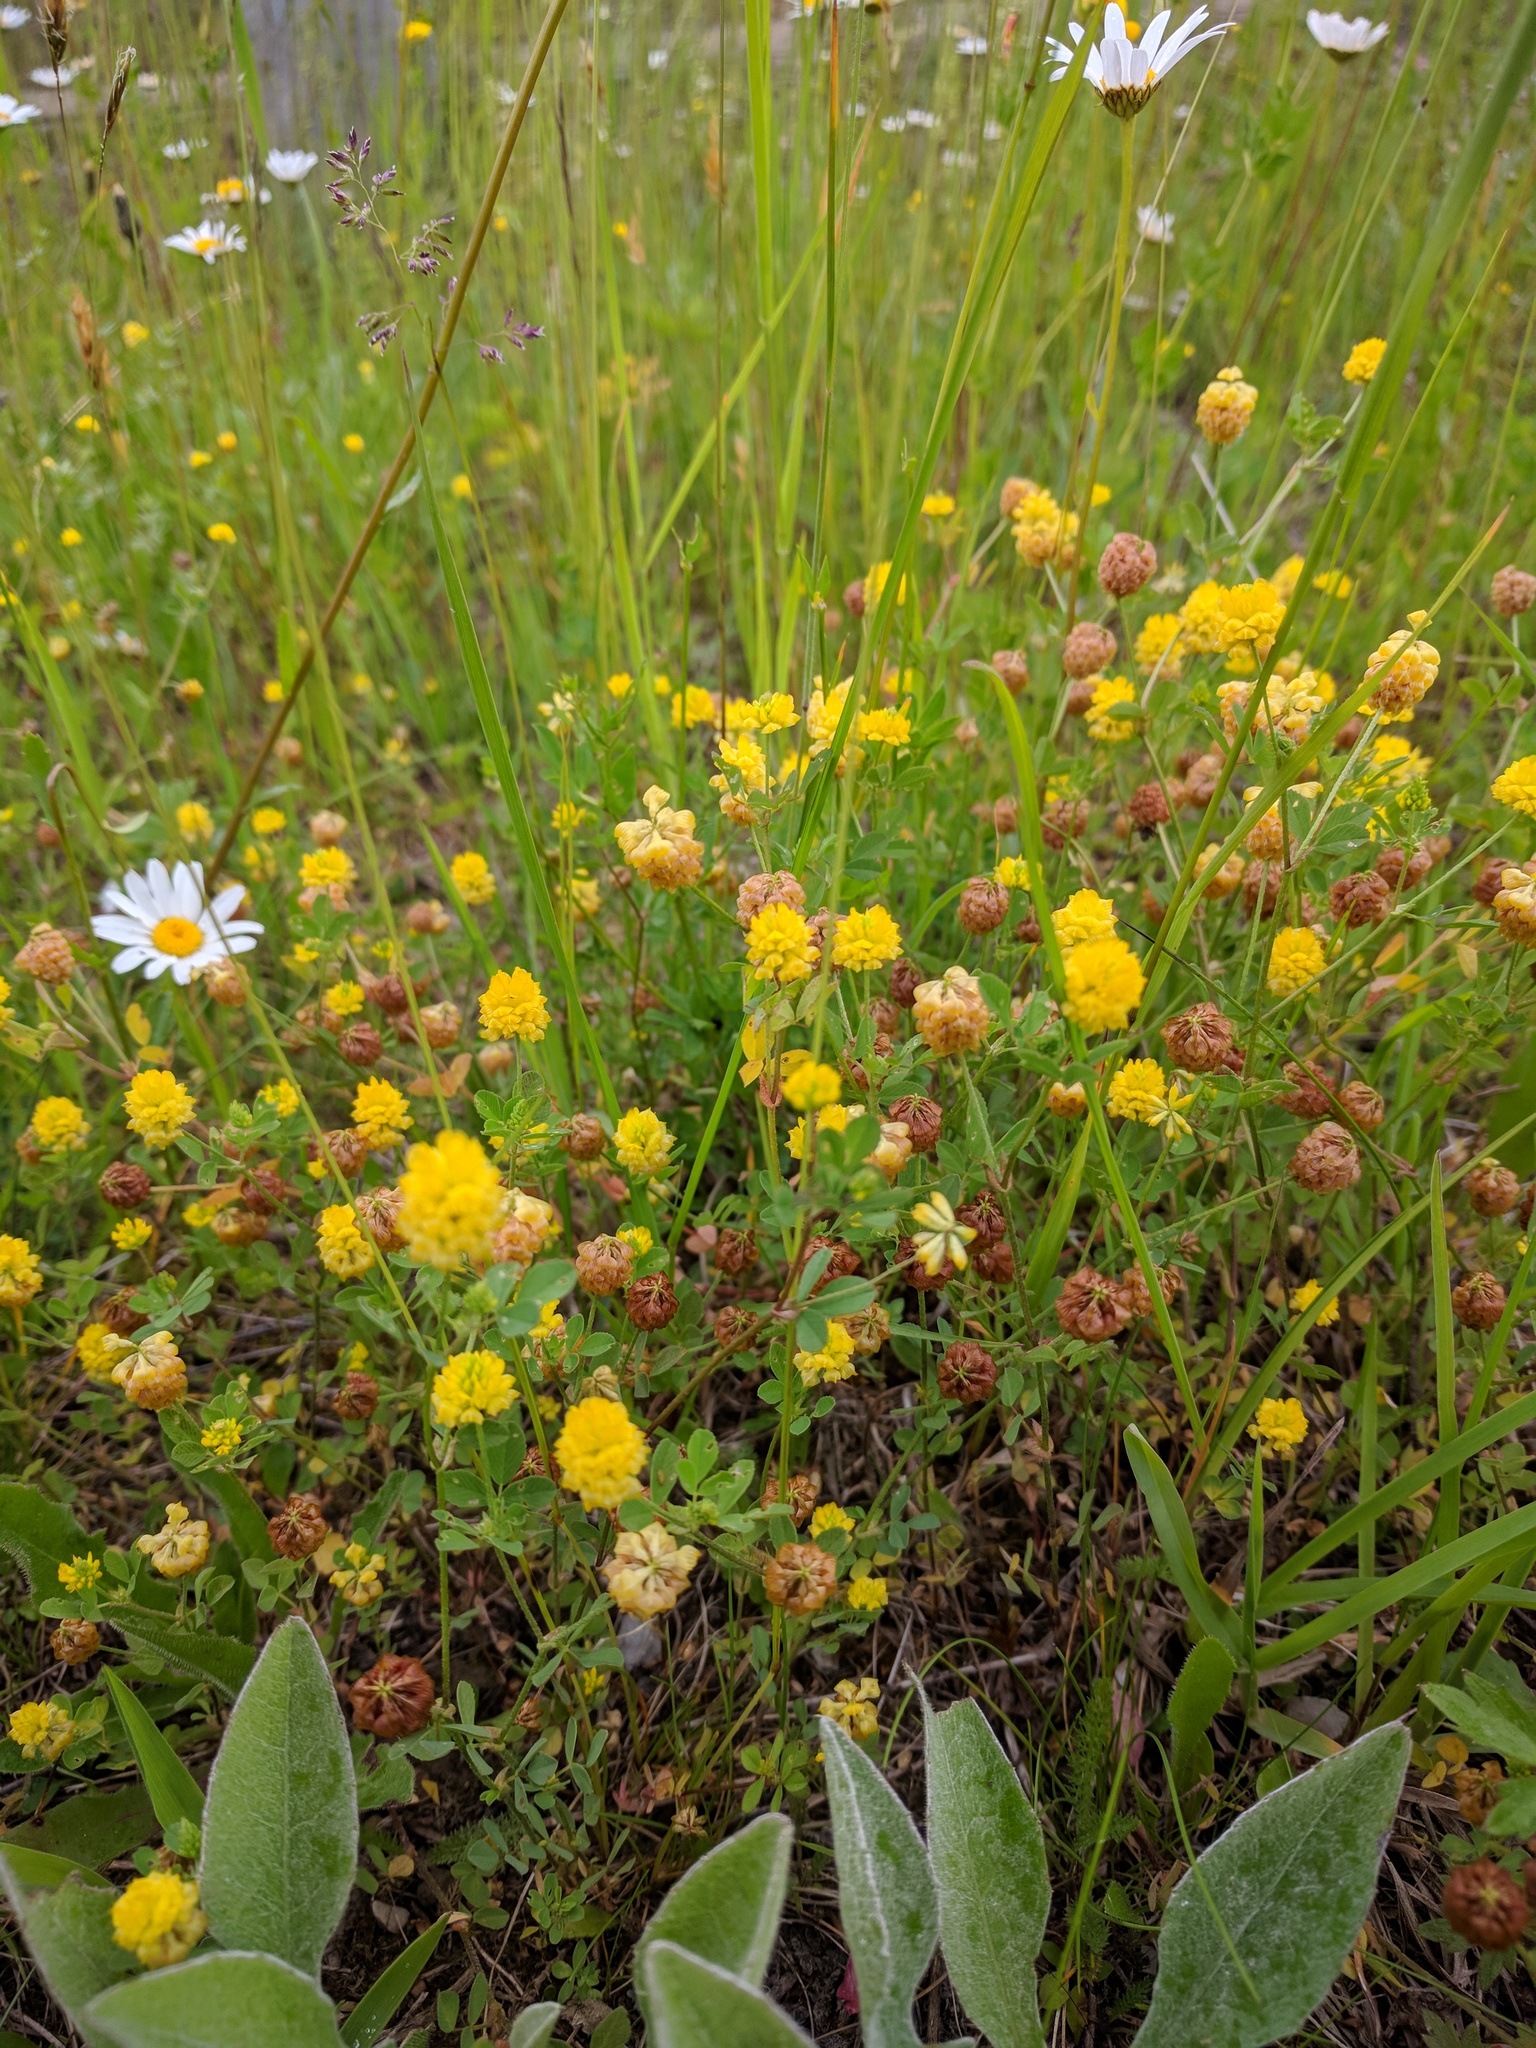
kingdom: Plantae
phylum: Tracheophyta
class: Magnoliopsida
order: Fabales
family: Fabaceae
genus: Trifolium
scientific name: Trifolium campestre
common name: Field clover
